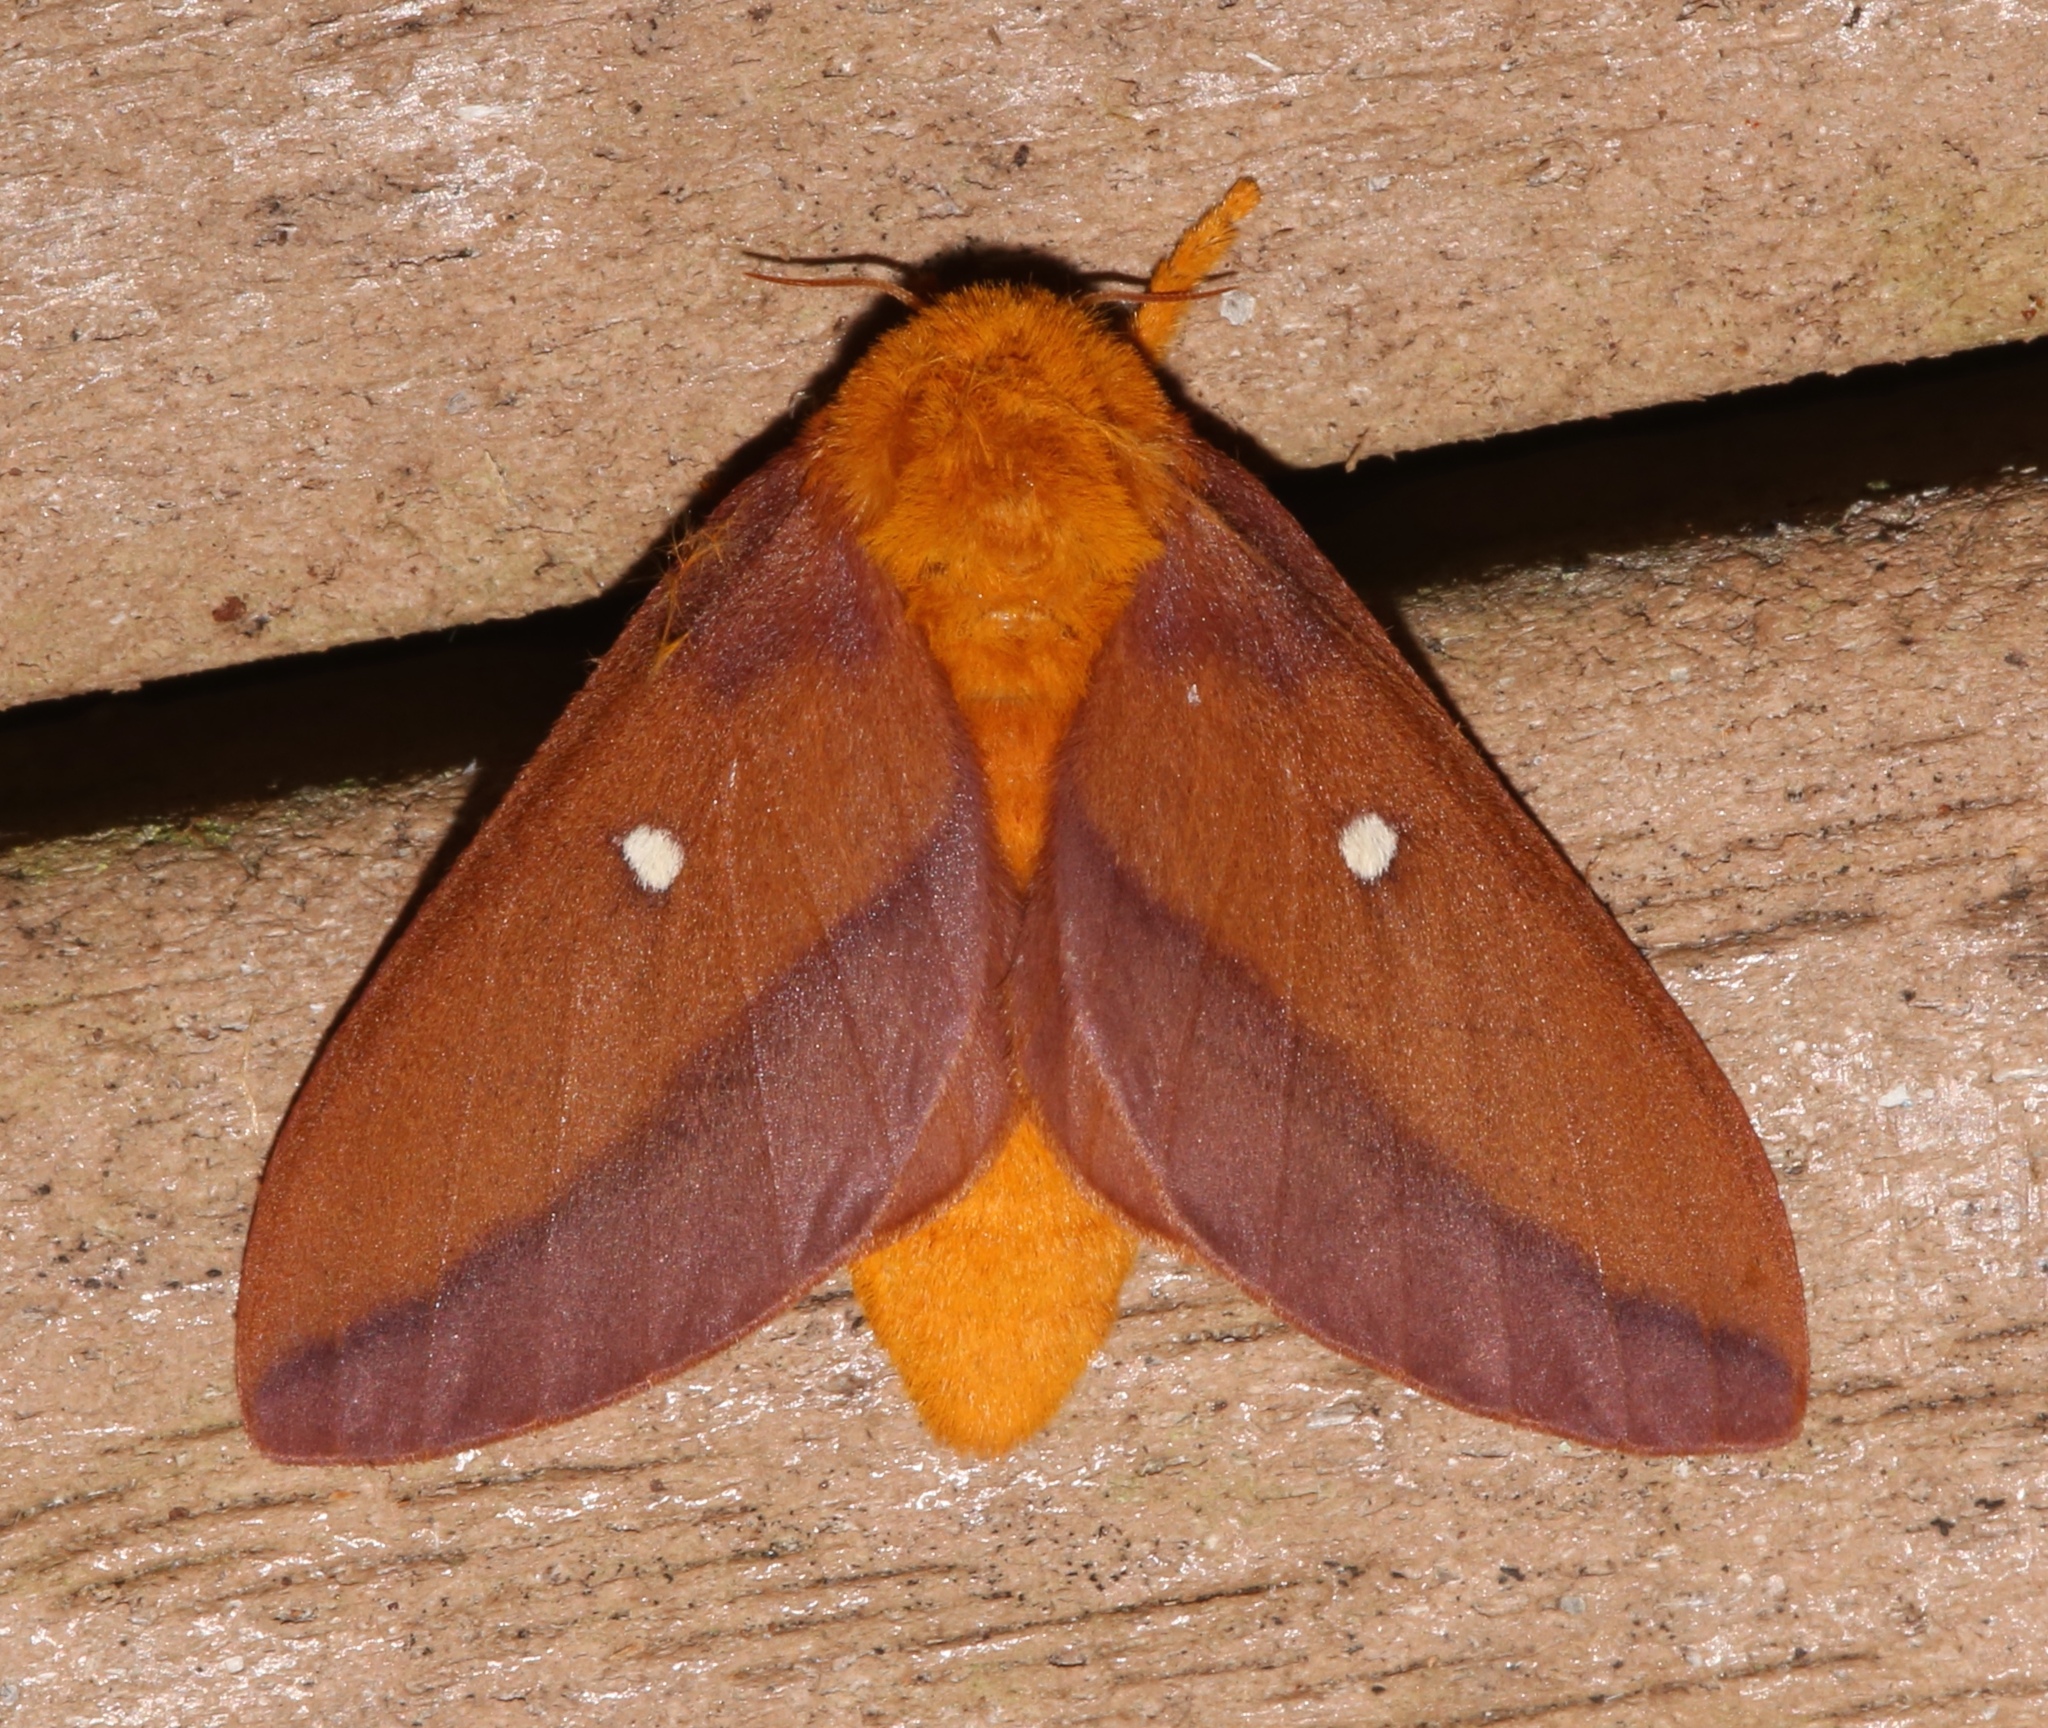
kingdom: Animalia
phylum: Arthropoda
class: Insecta
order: Lepidoptera
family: Saturniidae
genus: Anisota
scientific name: Anisota virginiensis
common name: Pink striped oakworm moth
